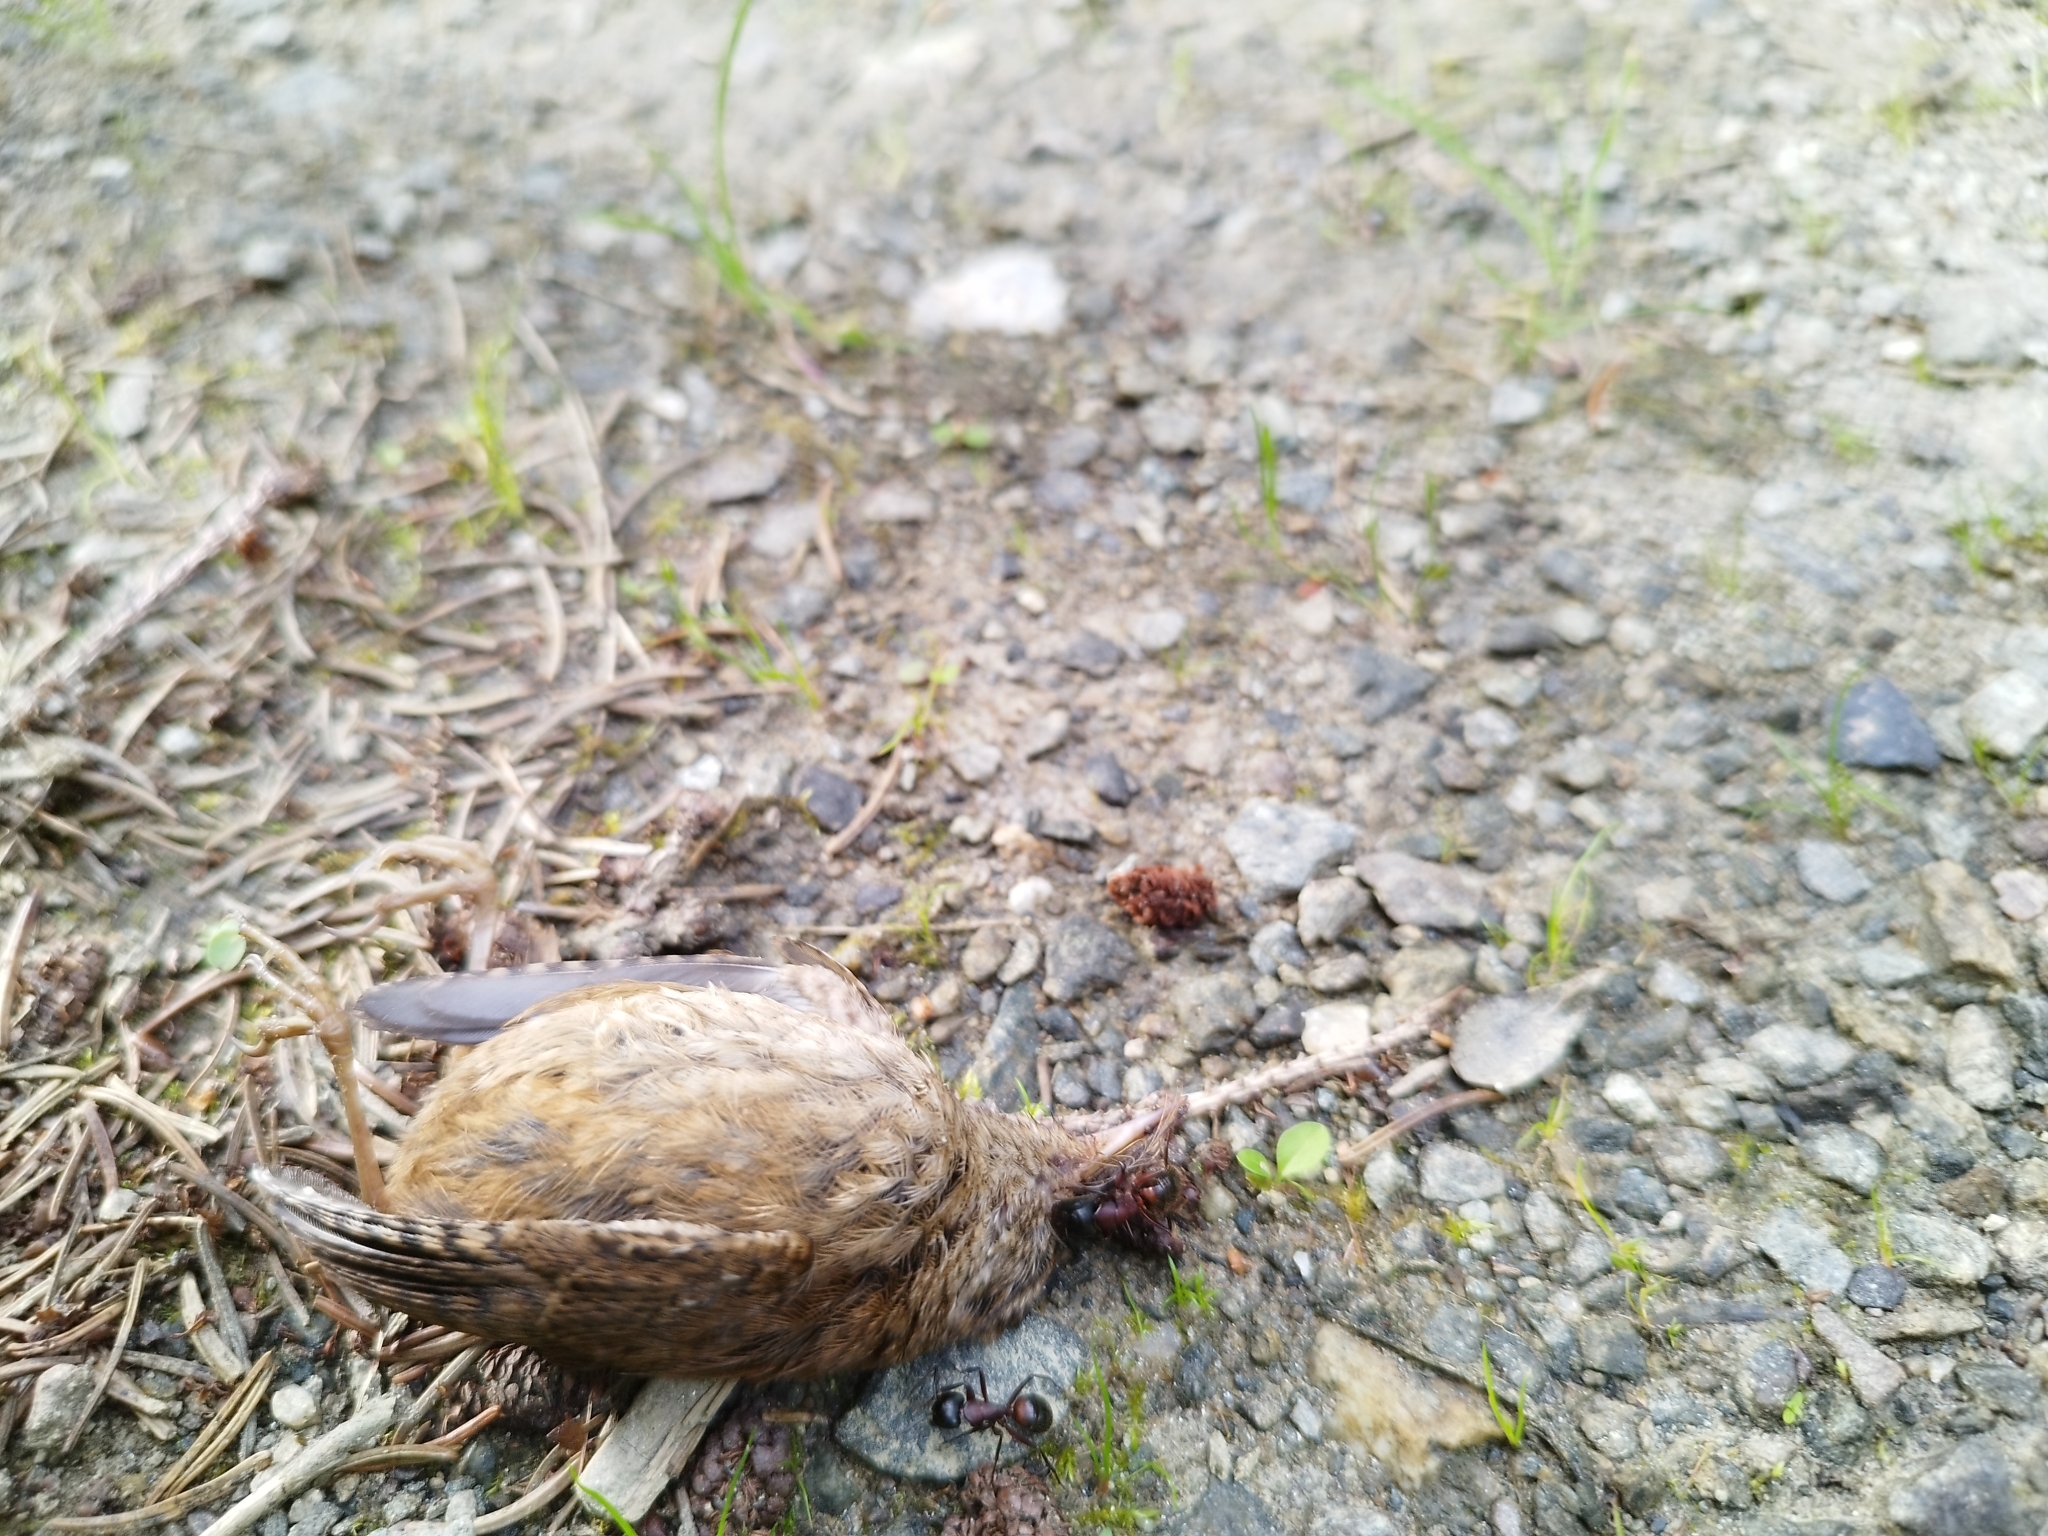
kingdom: Animalia
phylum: Chordata
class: Aves
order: Passeriformes
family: Troglodytidae
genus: Troglodytes
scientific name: Troglodytes troglodytes
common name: Eurasian wren
